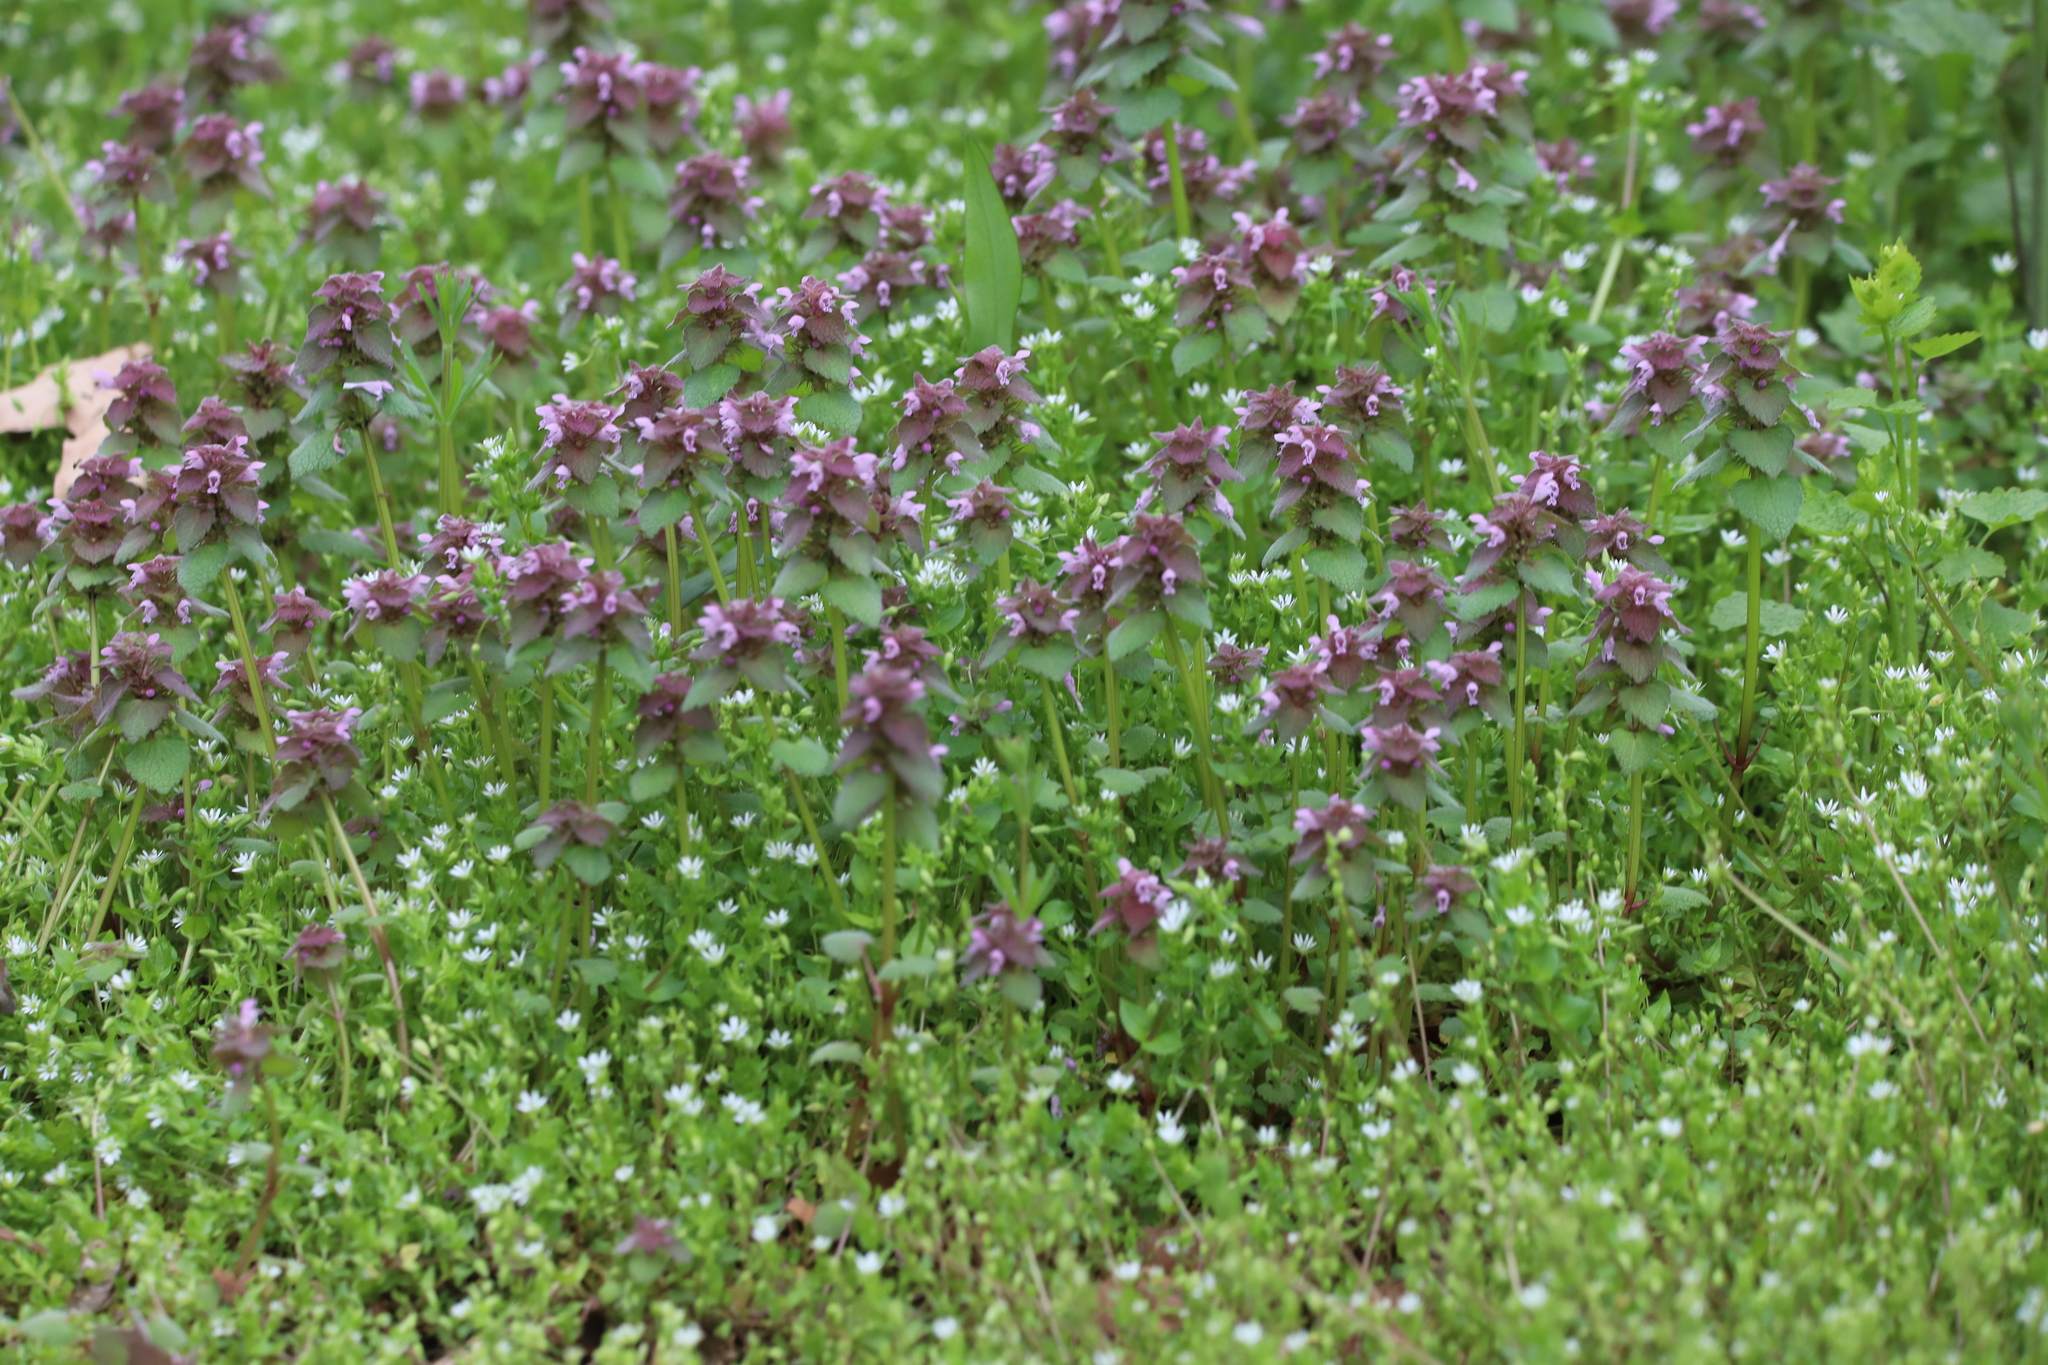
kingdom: Plantae
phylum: Tracheophyta
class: Magnoliopsida
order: Lamiales
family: Lamiaceae
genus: Lamium
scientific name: Lamium purpureum
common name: Red dead-nettle
